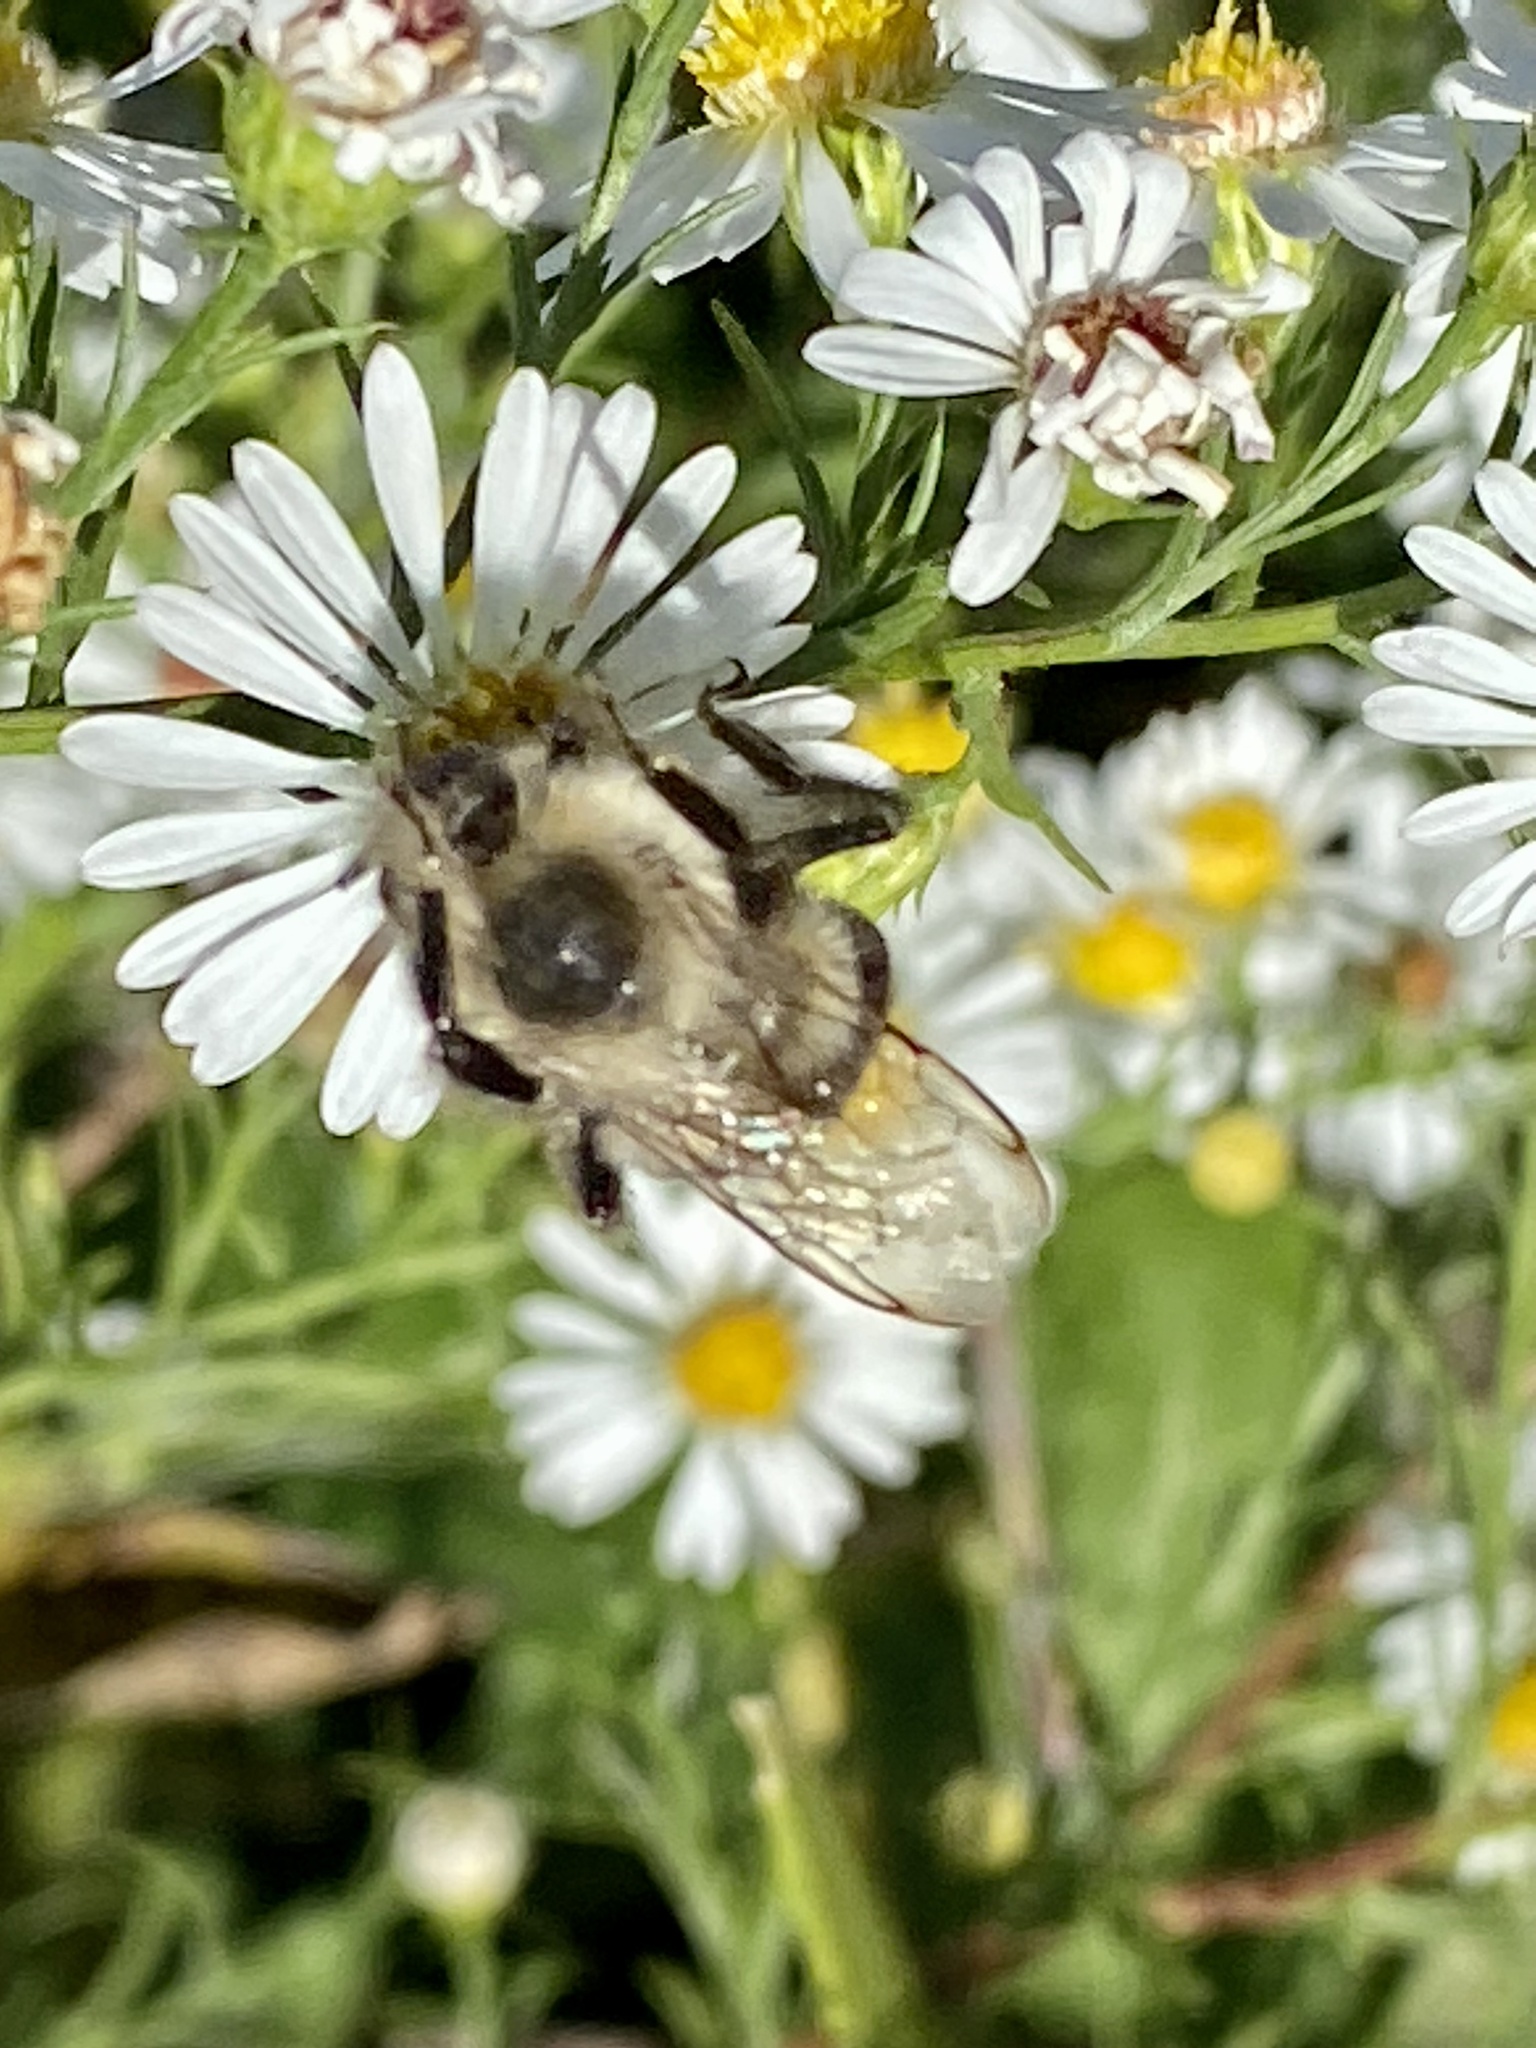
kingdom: Animalia
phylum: Arthropoda
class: Insecta
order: Hymenoptera
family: Apidae
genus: Bombus
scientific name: Bombus impatiens
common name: Common eastern bumble bee
